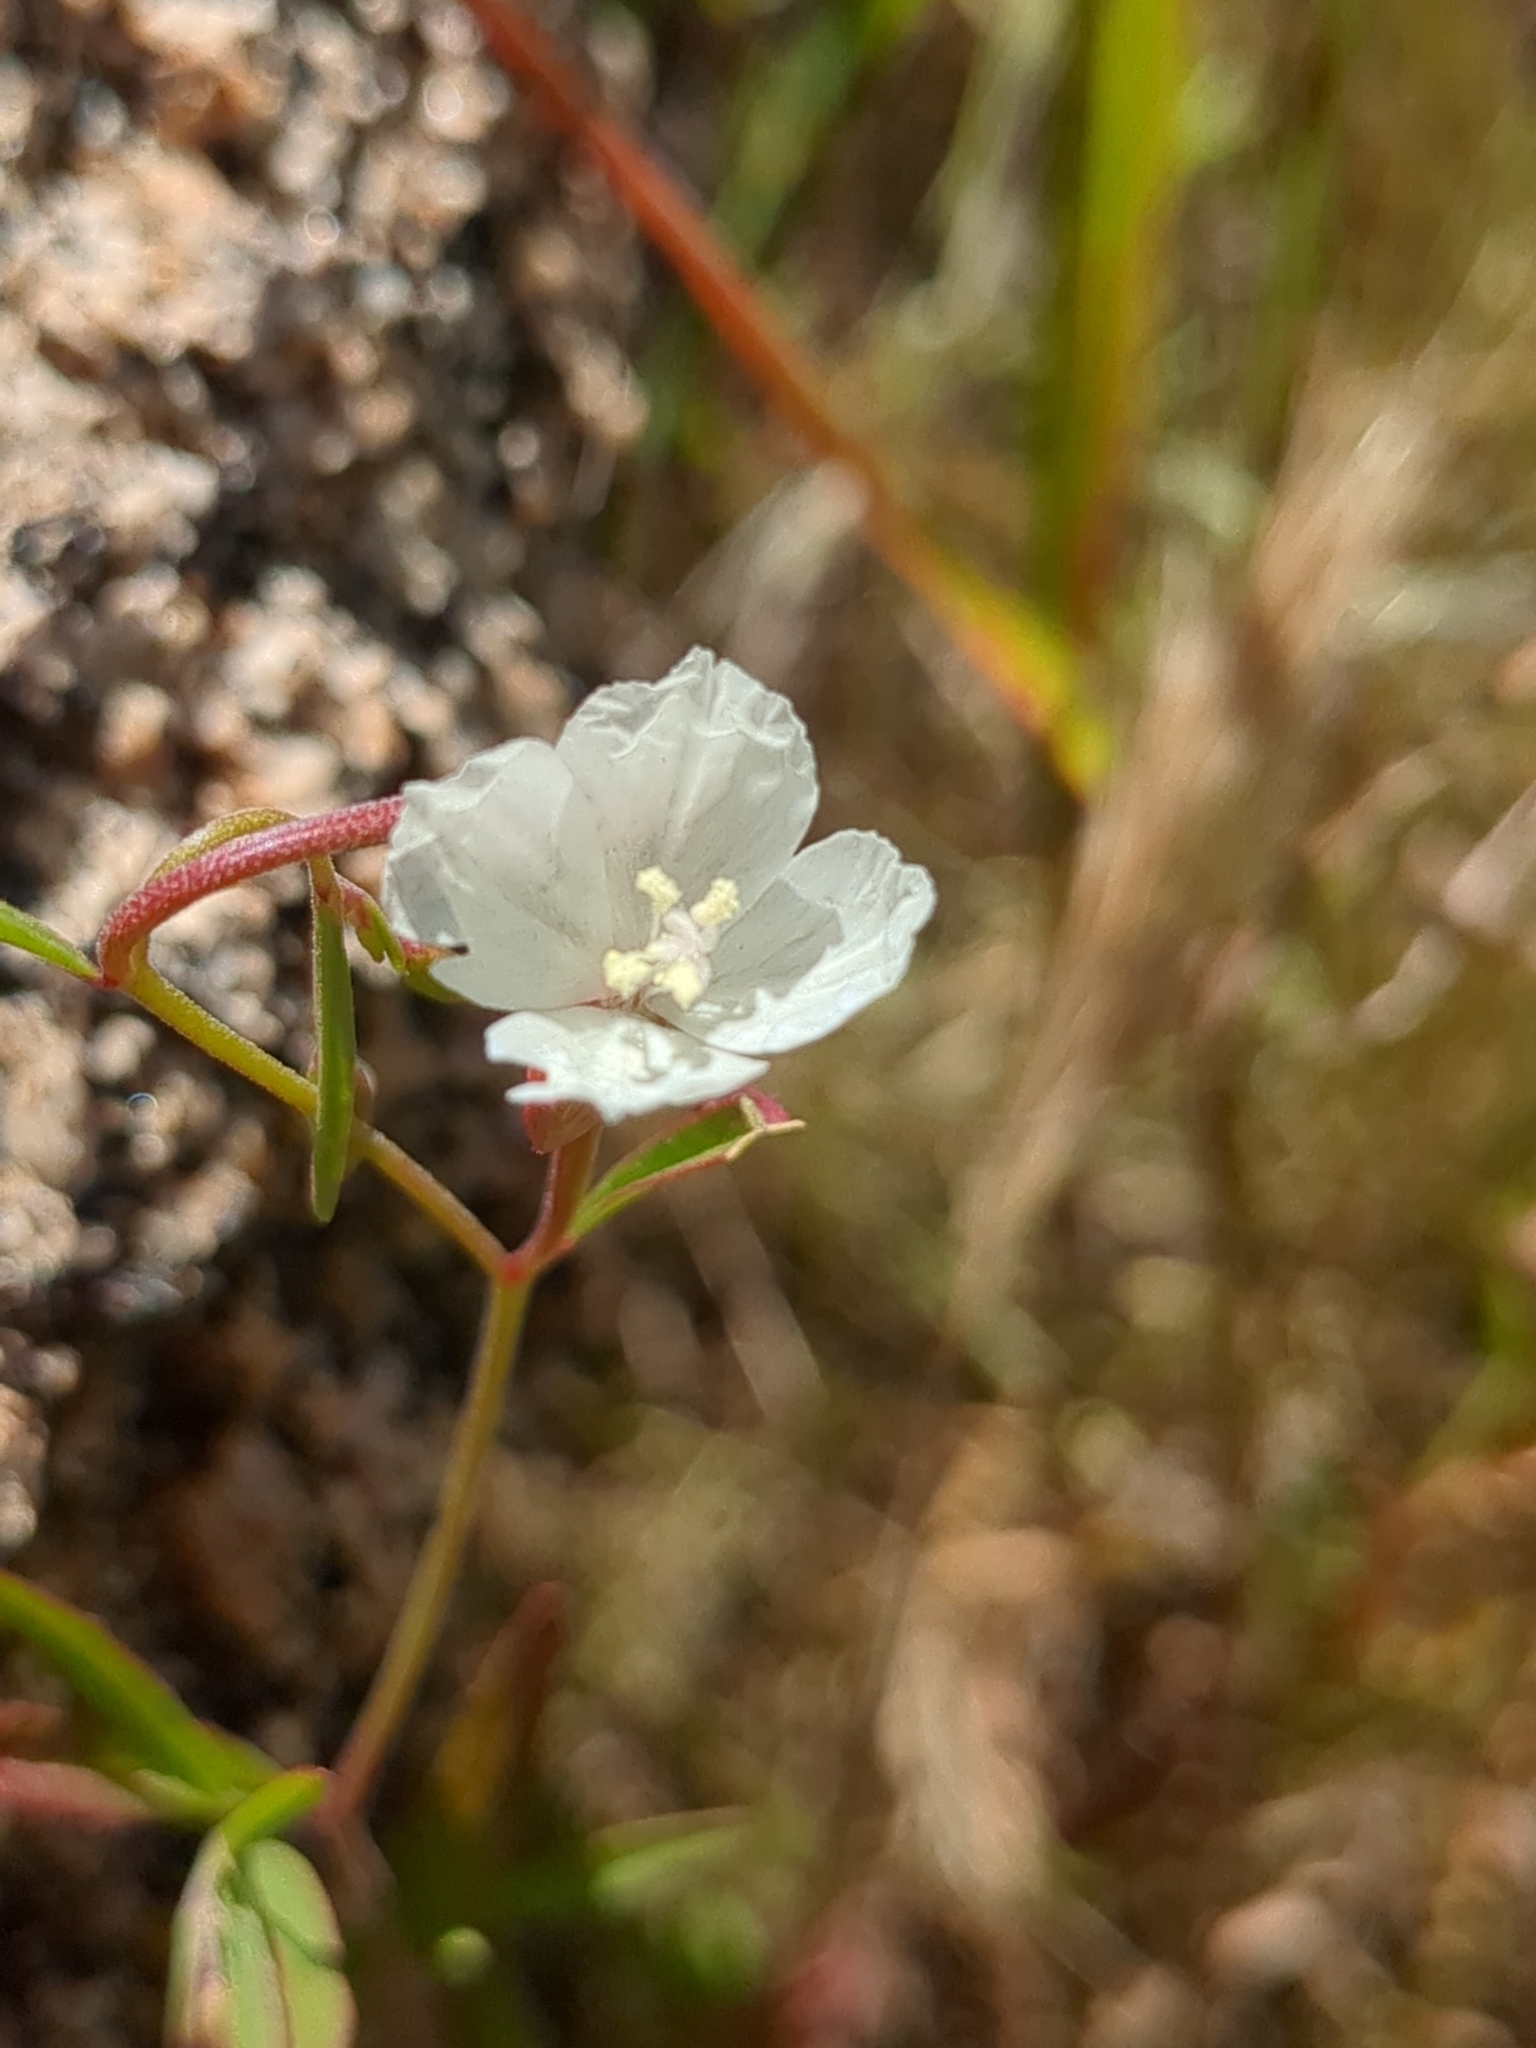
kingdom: Plantae
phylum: Tracheophyta
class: Magnoliopsida
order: Myrtales
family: Onagraceae
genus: Clarkia
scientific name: Clarkia epilobioides
